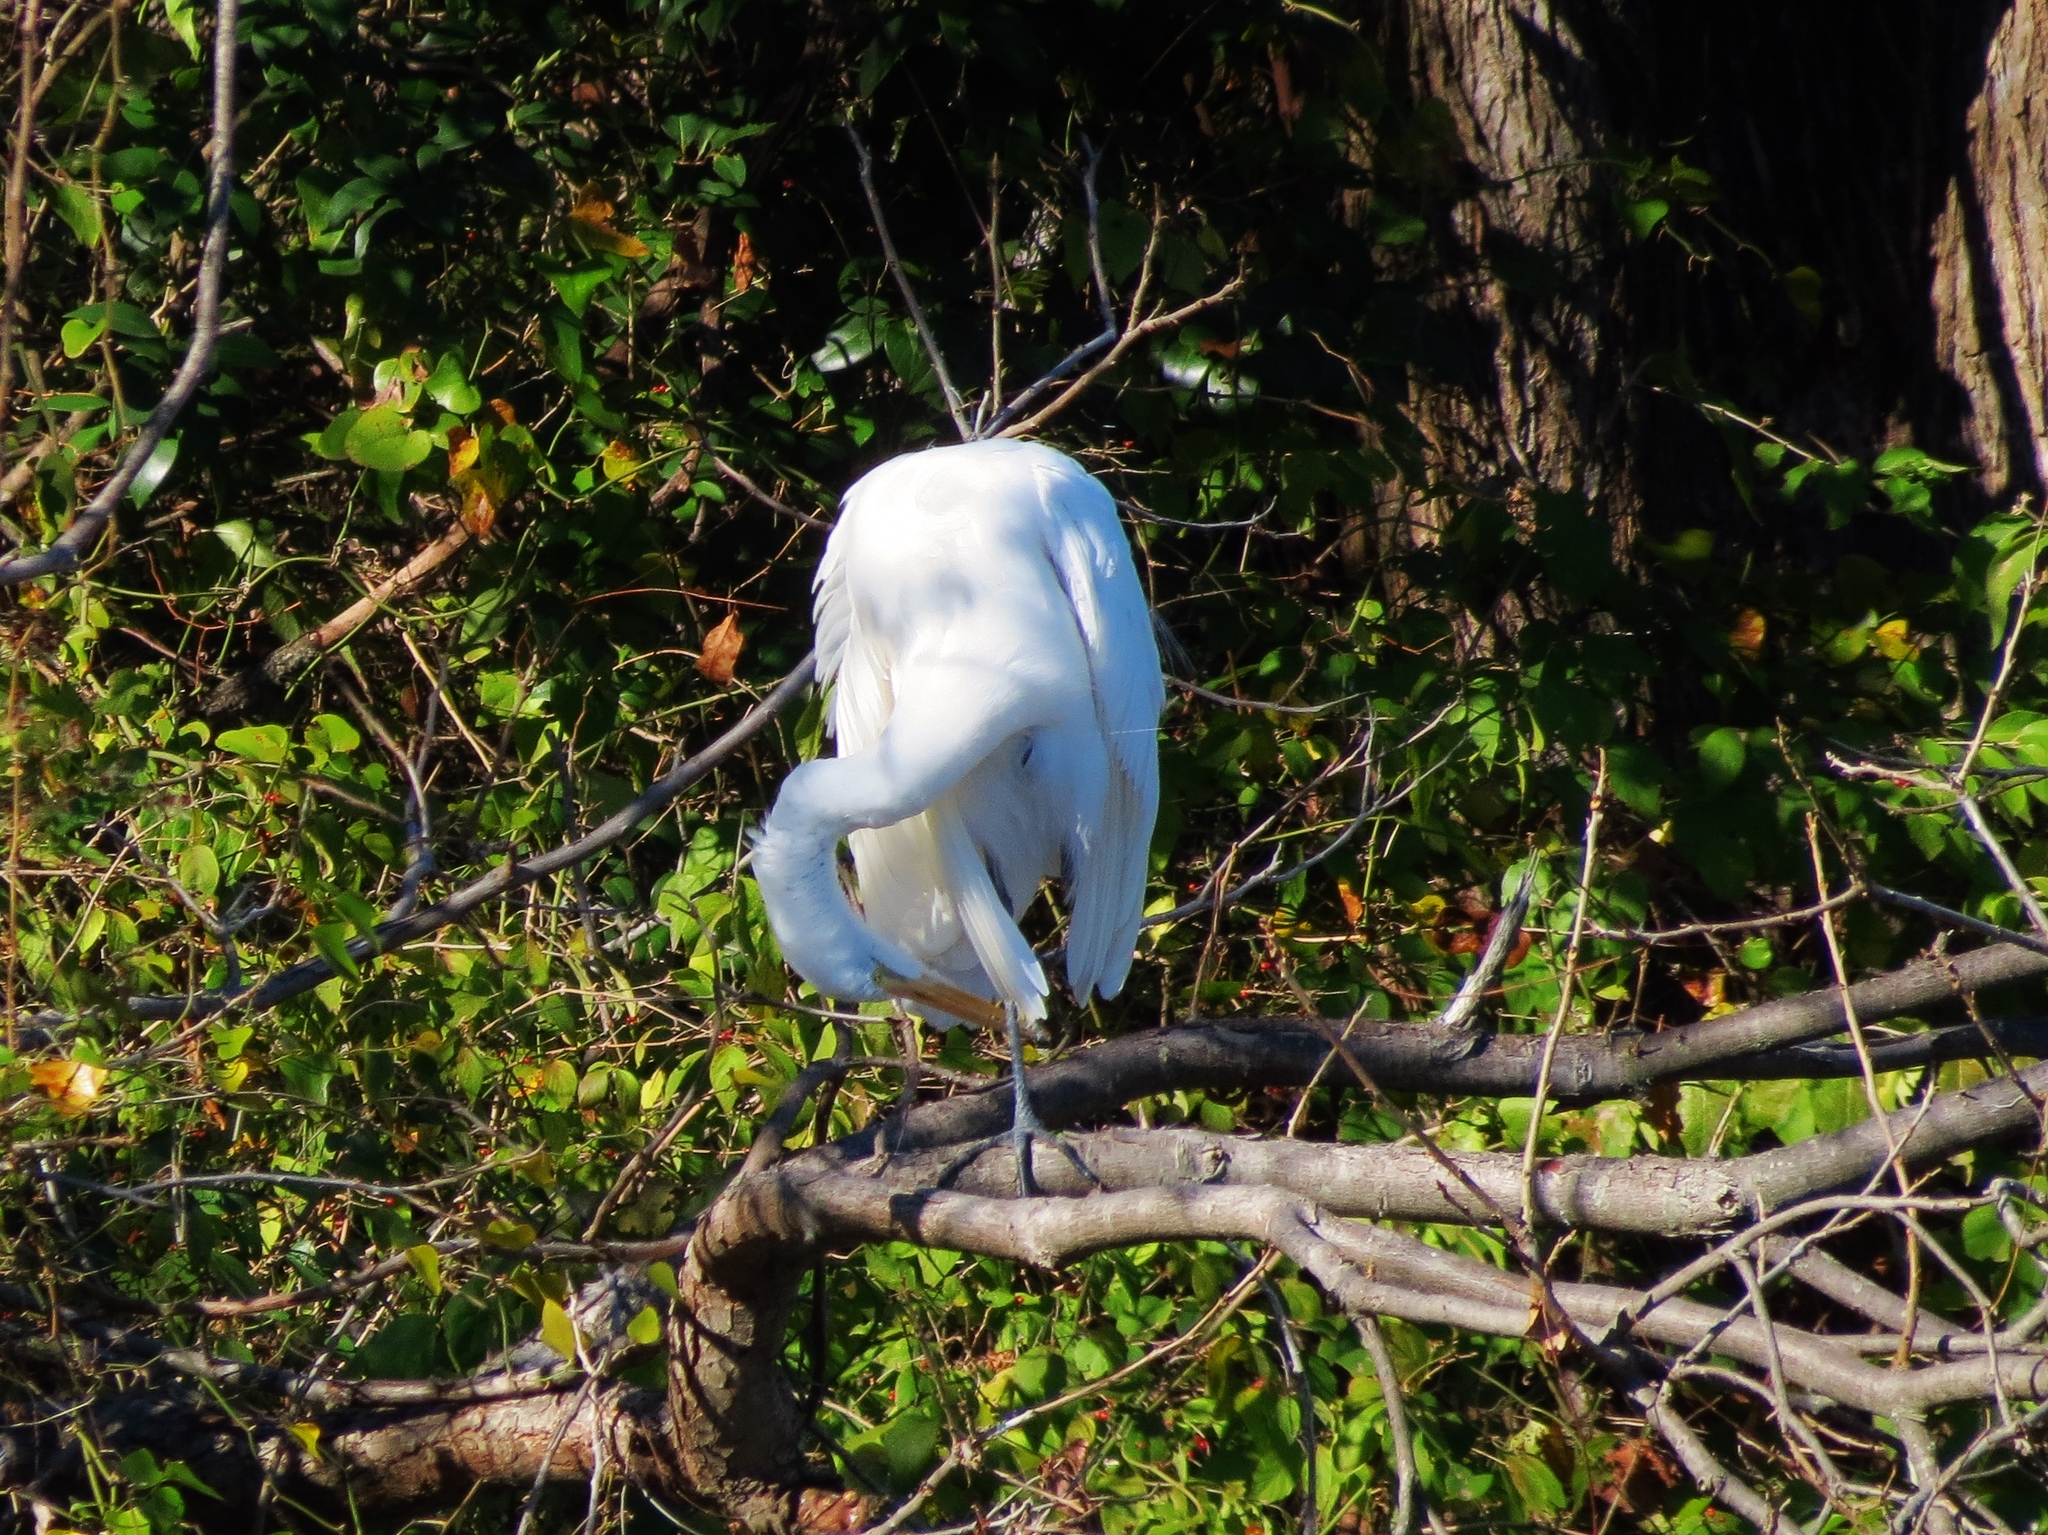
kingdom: Animalia
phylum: Chordata
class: Aves
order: Pelecaniformes
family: Ardeidae
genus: Ardea
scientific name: Ardea alba
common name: Great egret
